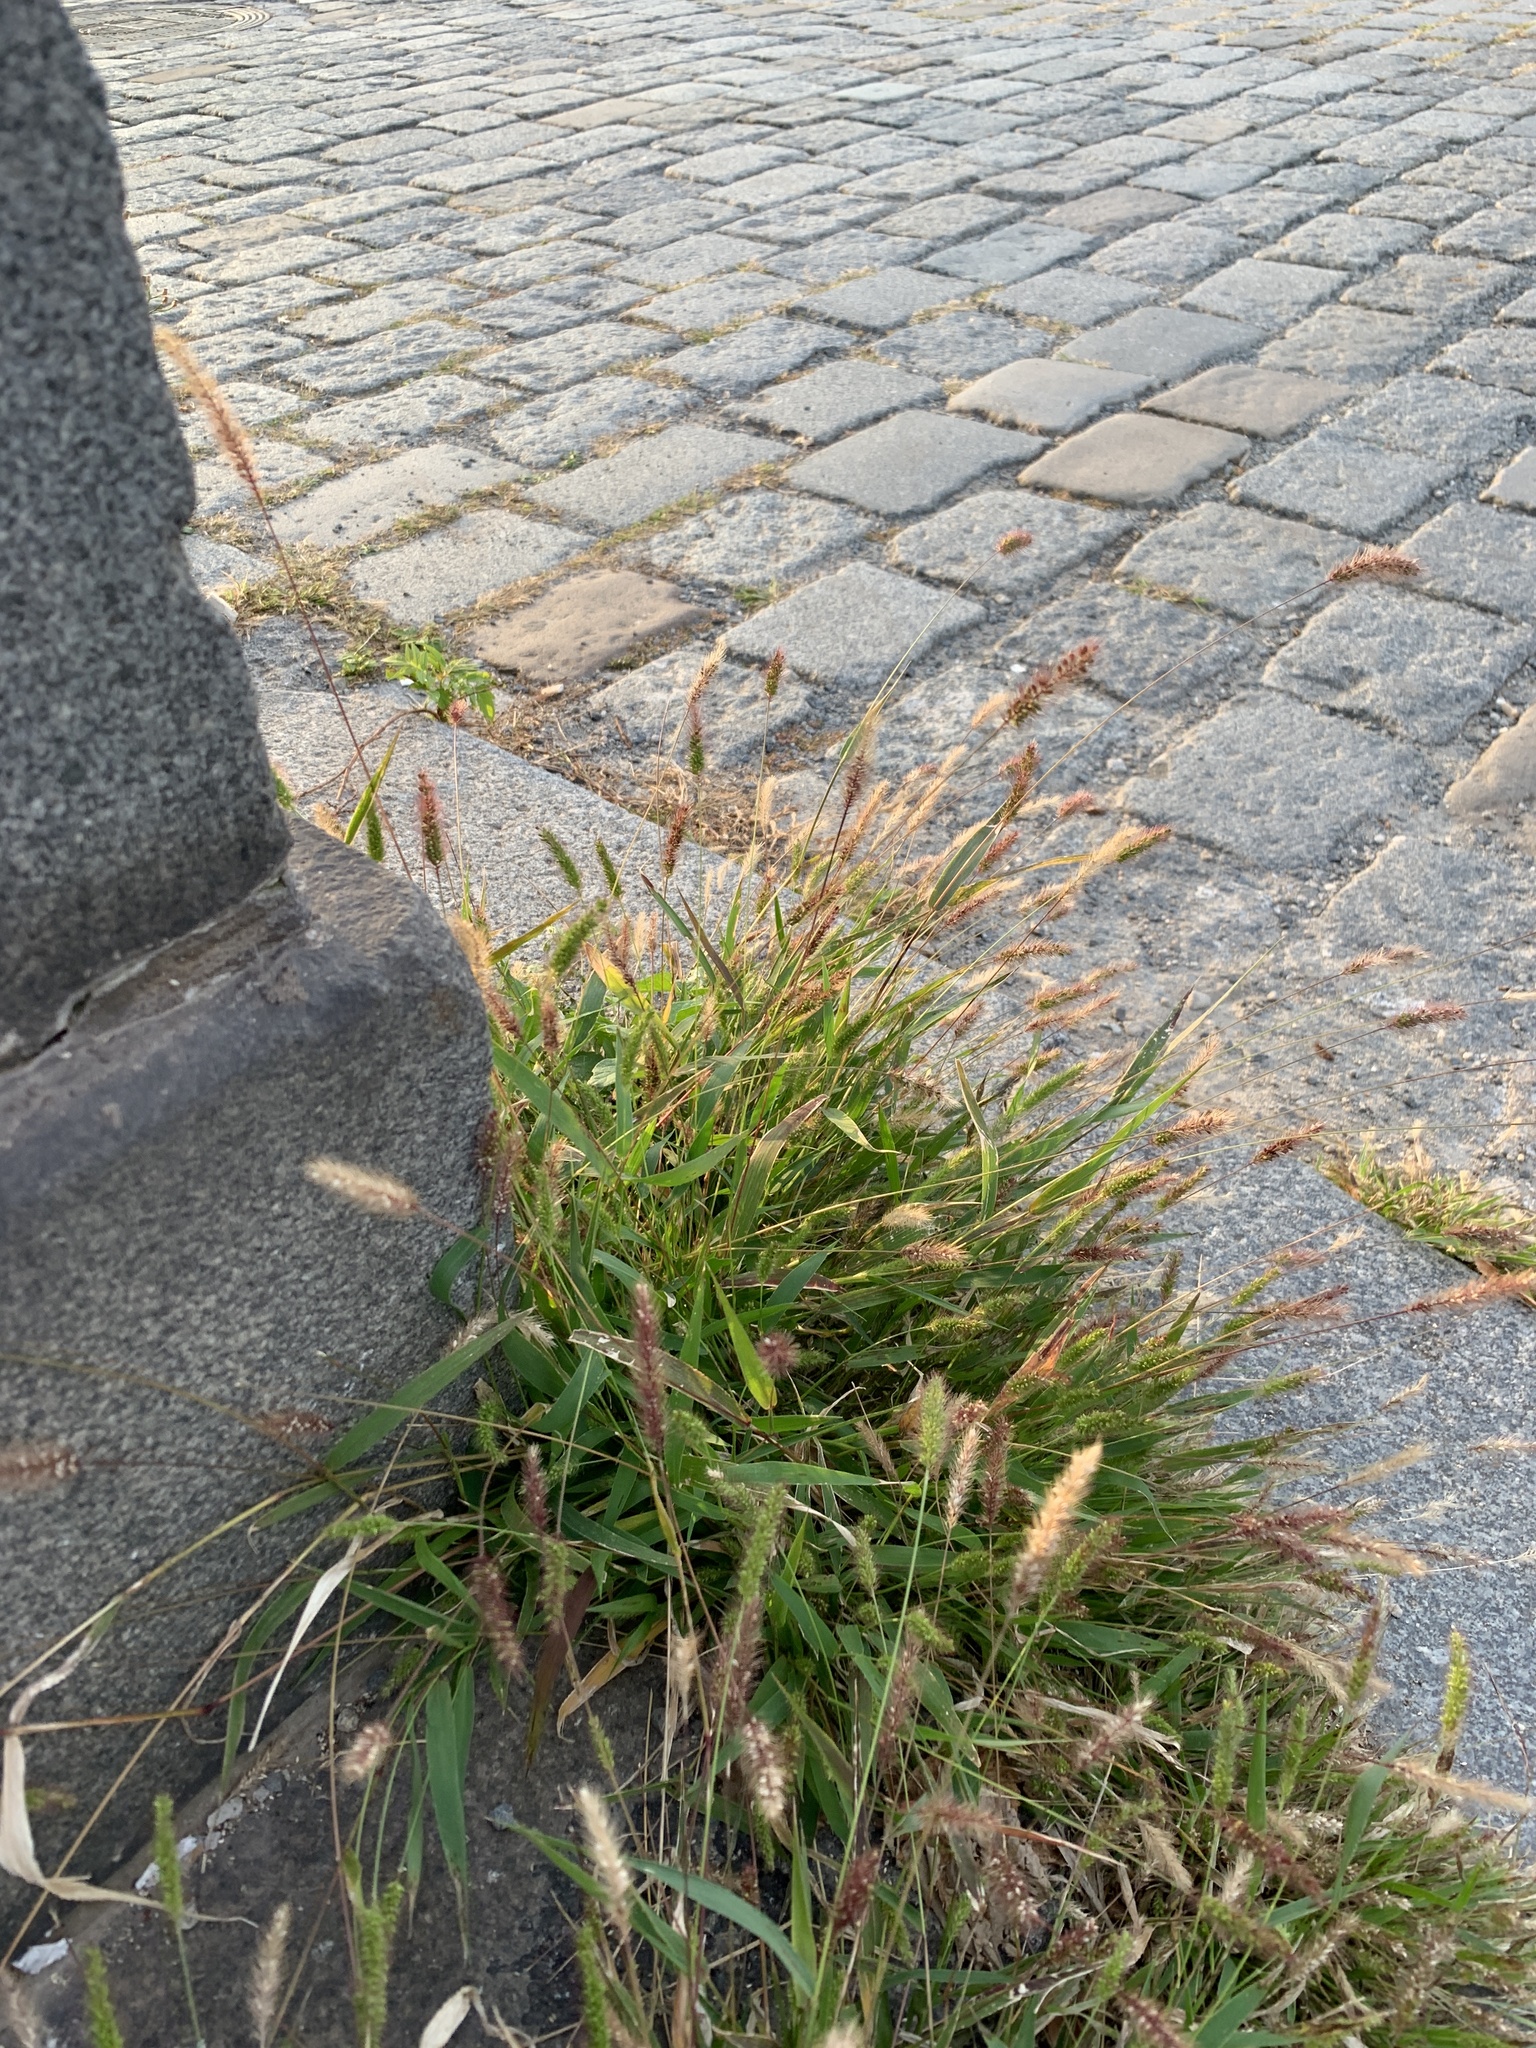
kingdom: Plantae
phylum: Tracheophyta
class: Liliopsida
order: Poales
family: Poaceae
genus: Setaria
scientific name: Setaria viridis
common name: Green bristlegrass
